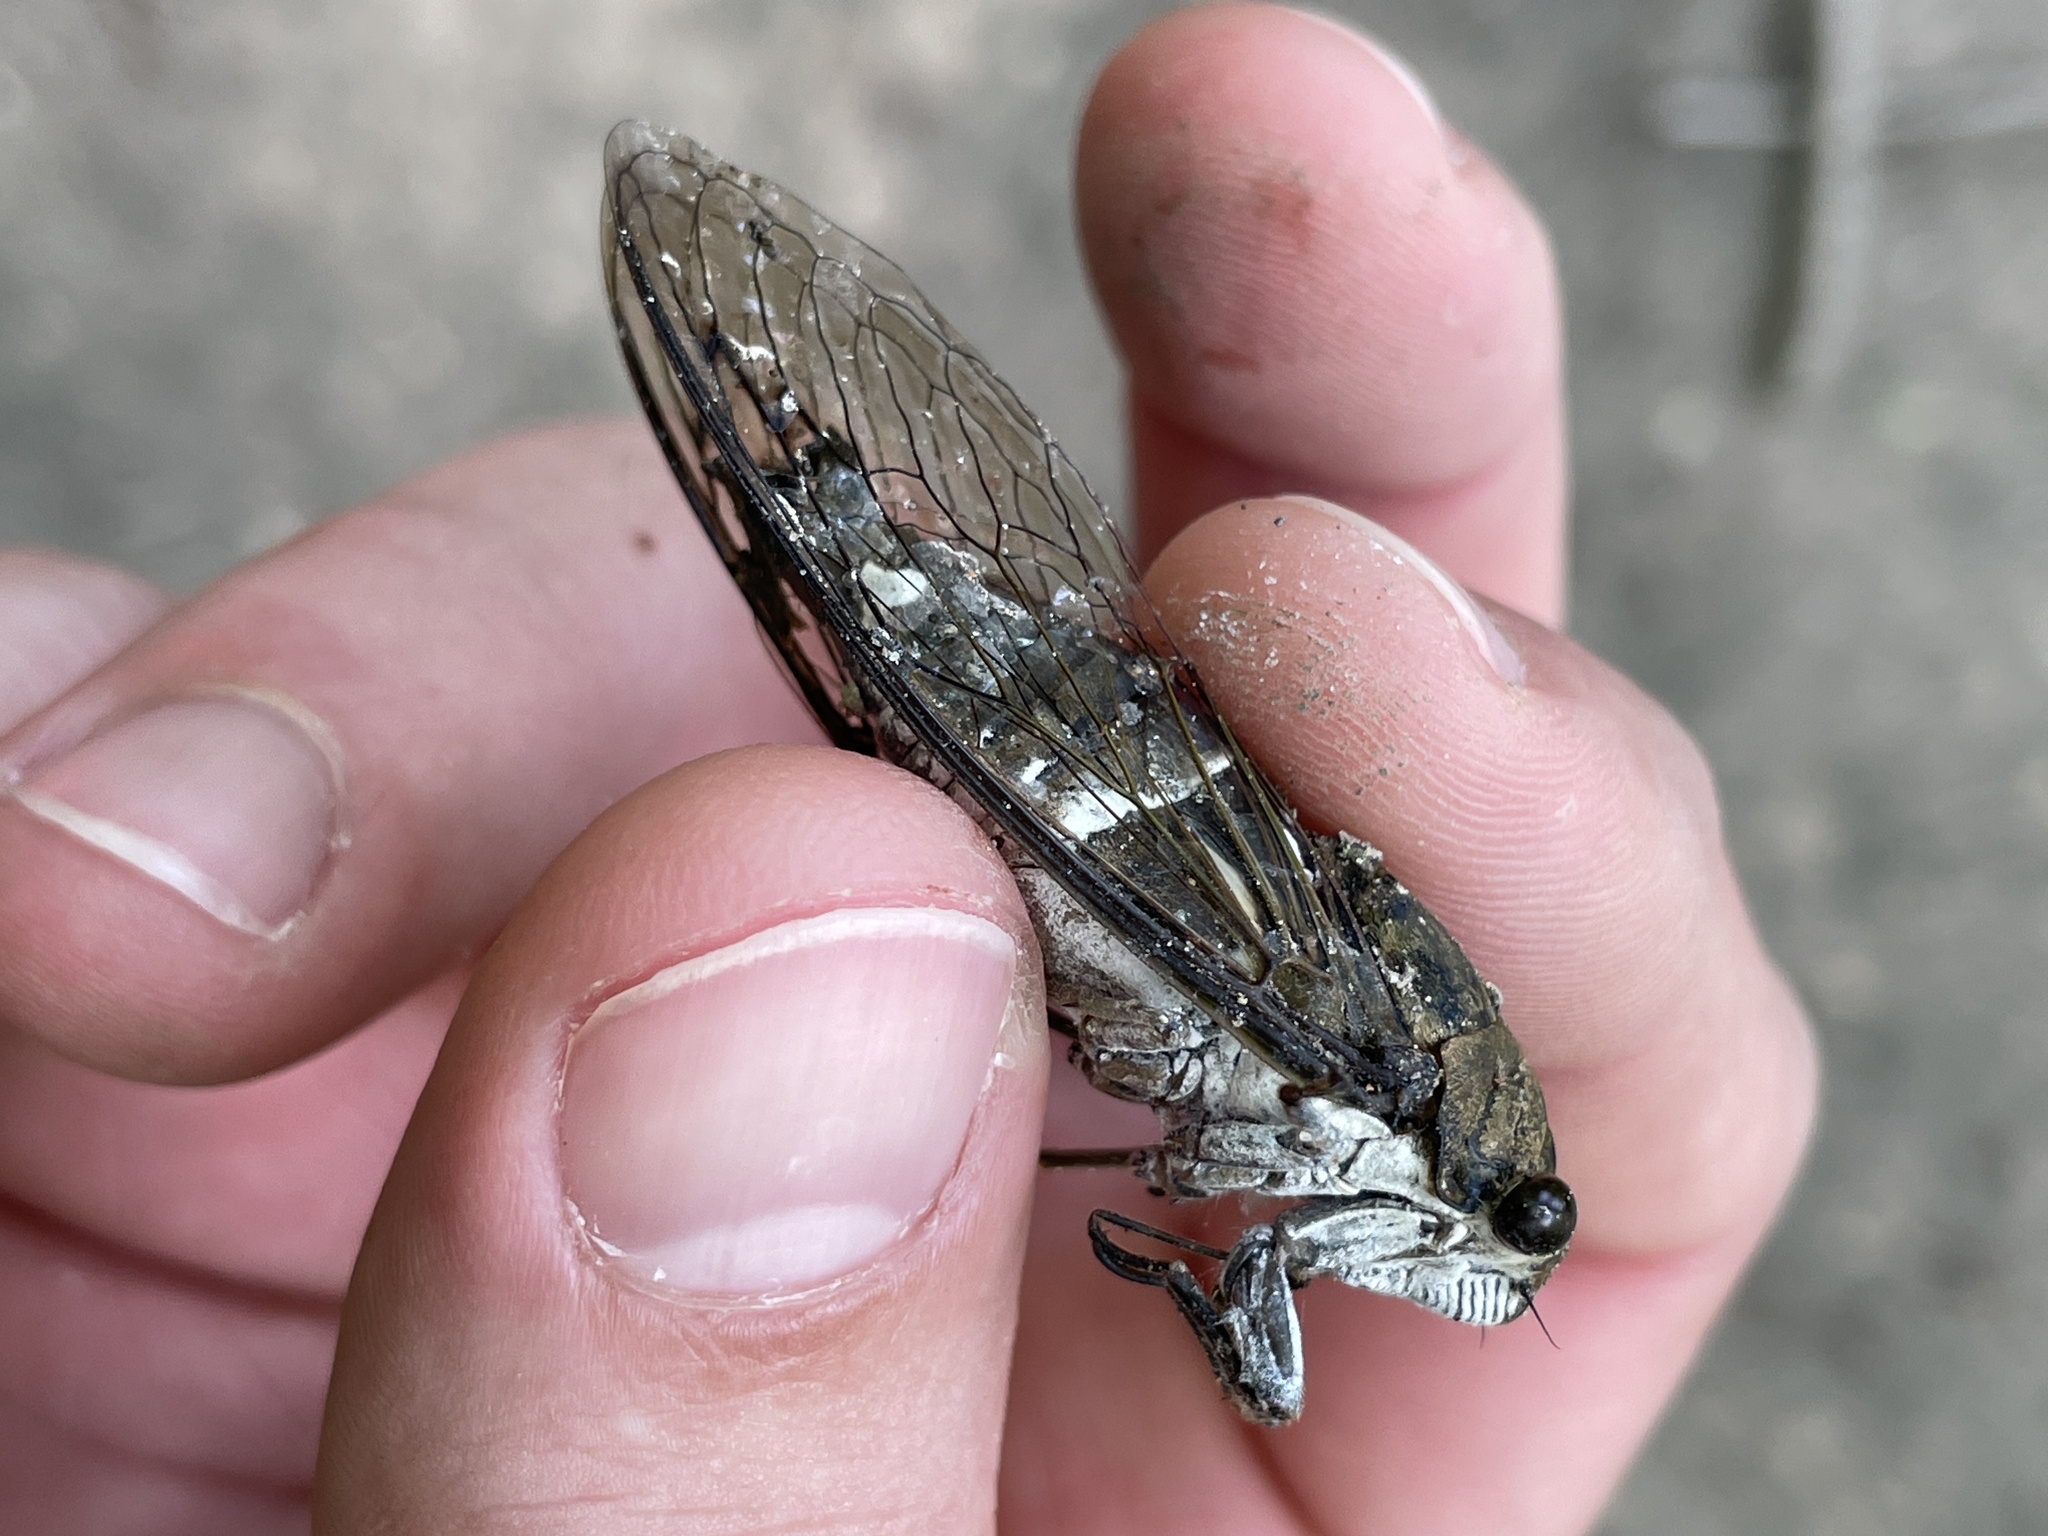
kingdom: Animalia
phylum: Arthropoda
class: Insecta
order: Hemiptera
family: Cicadidae
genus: Neotibicen
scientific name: Neotibicen pruinosus
